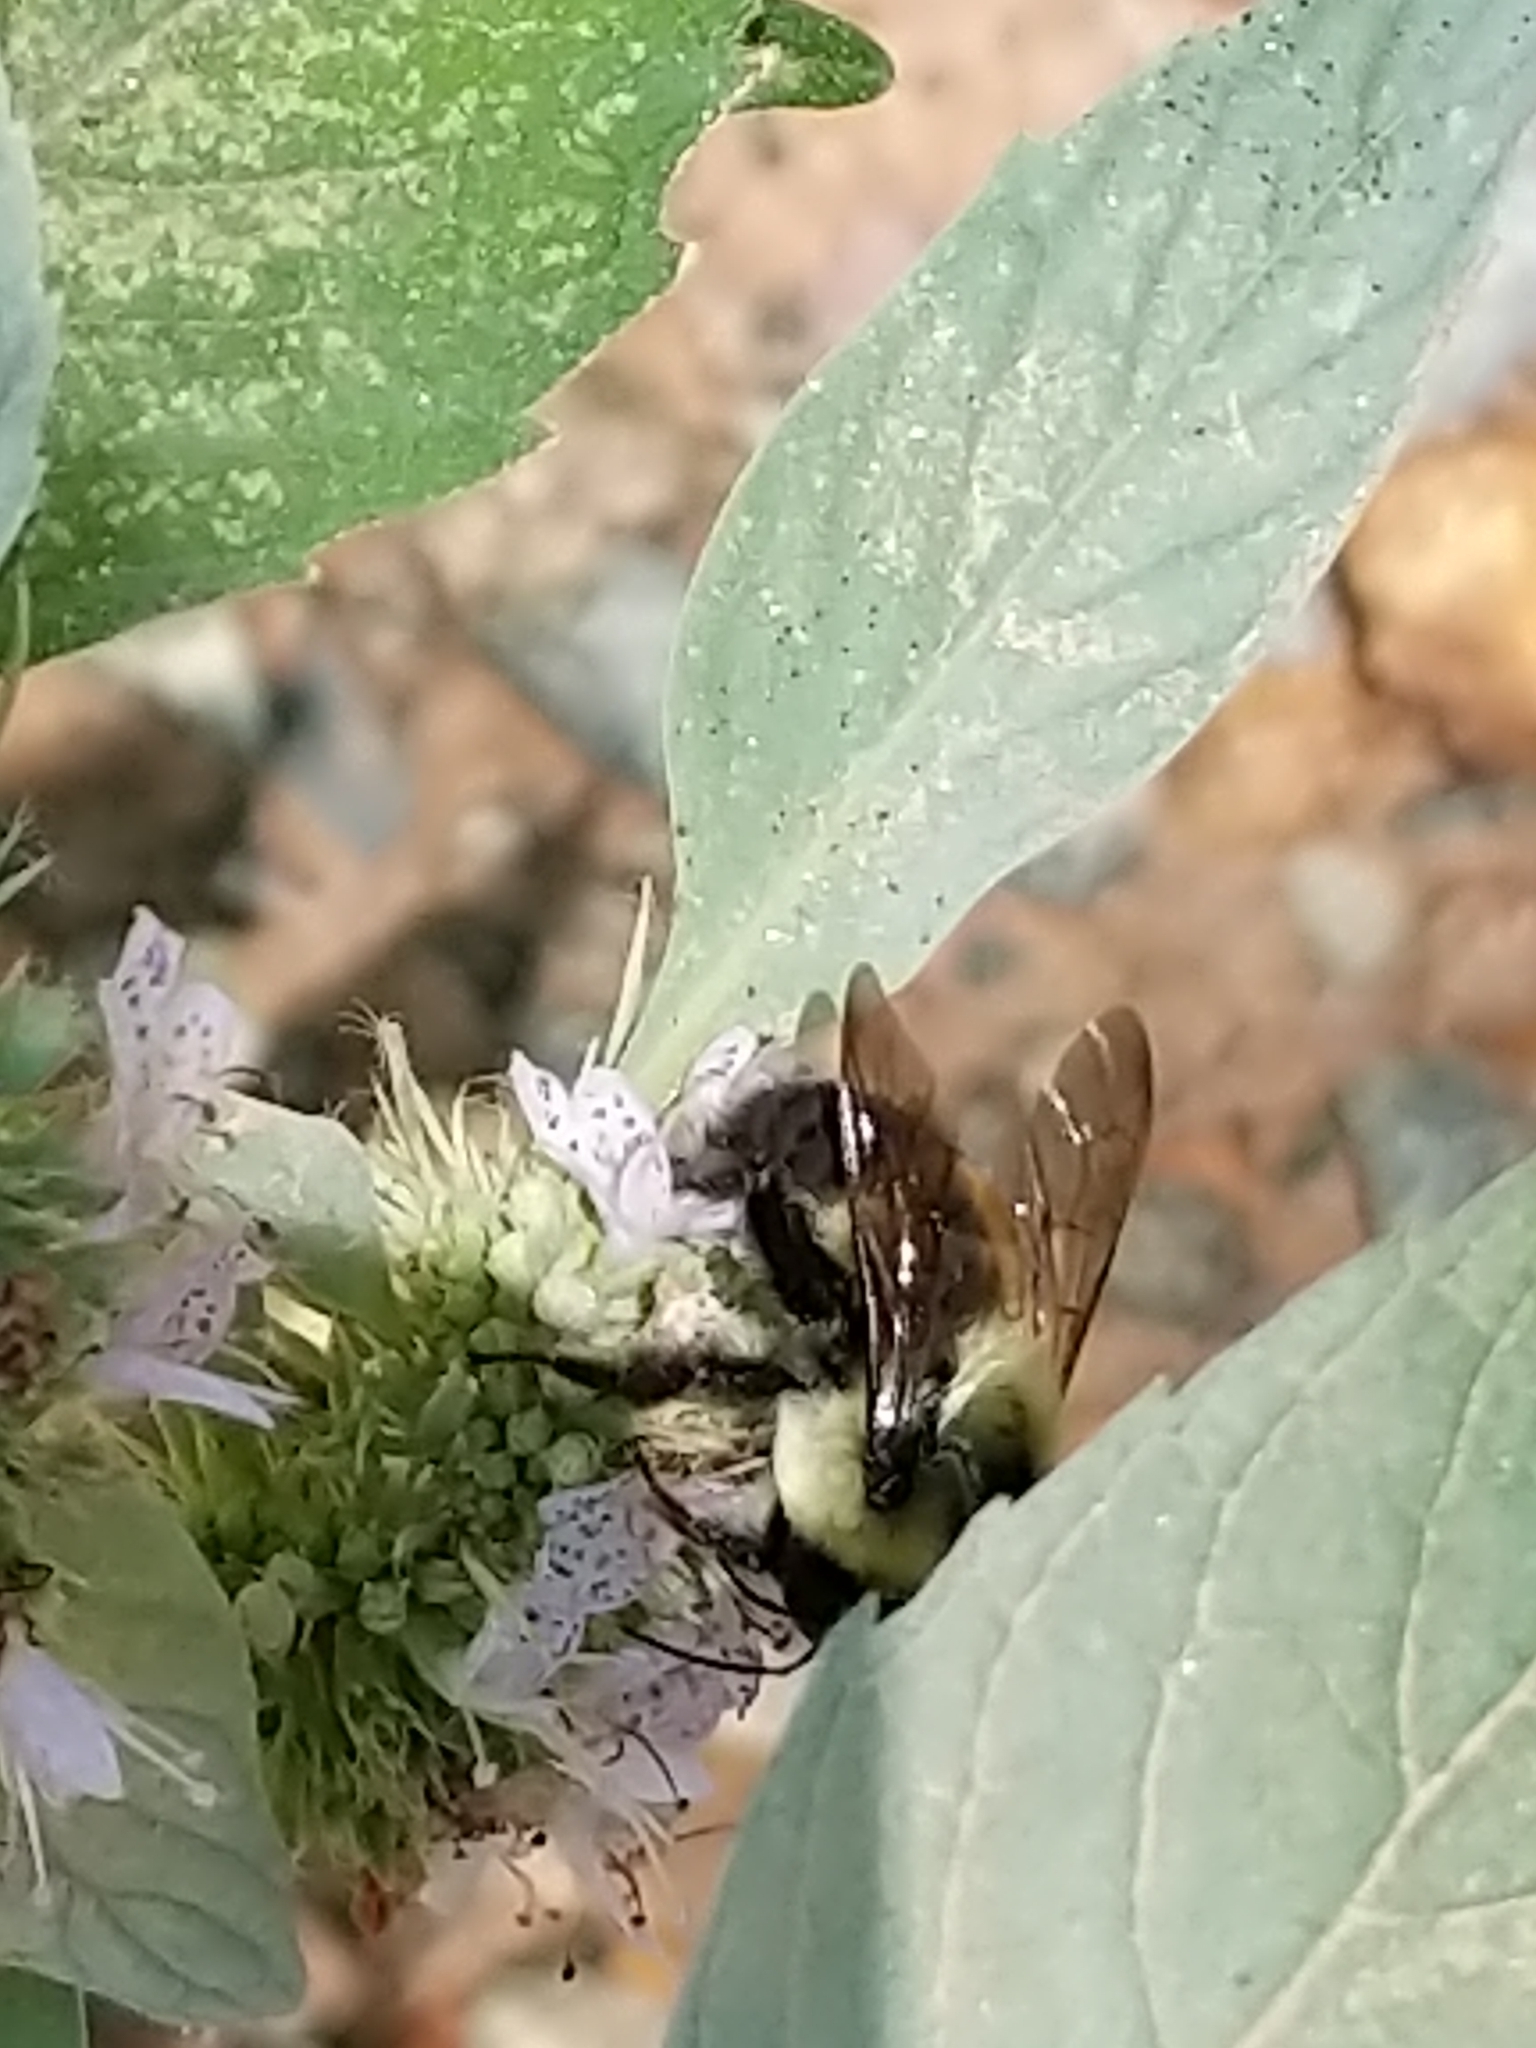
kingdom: Animalia
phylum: Arthropoda
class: Insecta
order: Hymenoptera
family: Apidae
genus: Bombus
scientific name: Bombus griseocollis
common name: Brown-belted bumble bee
